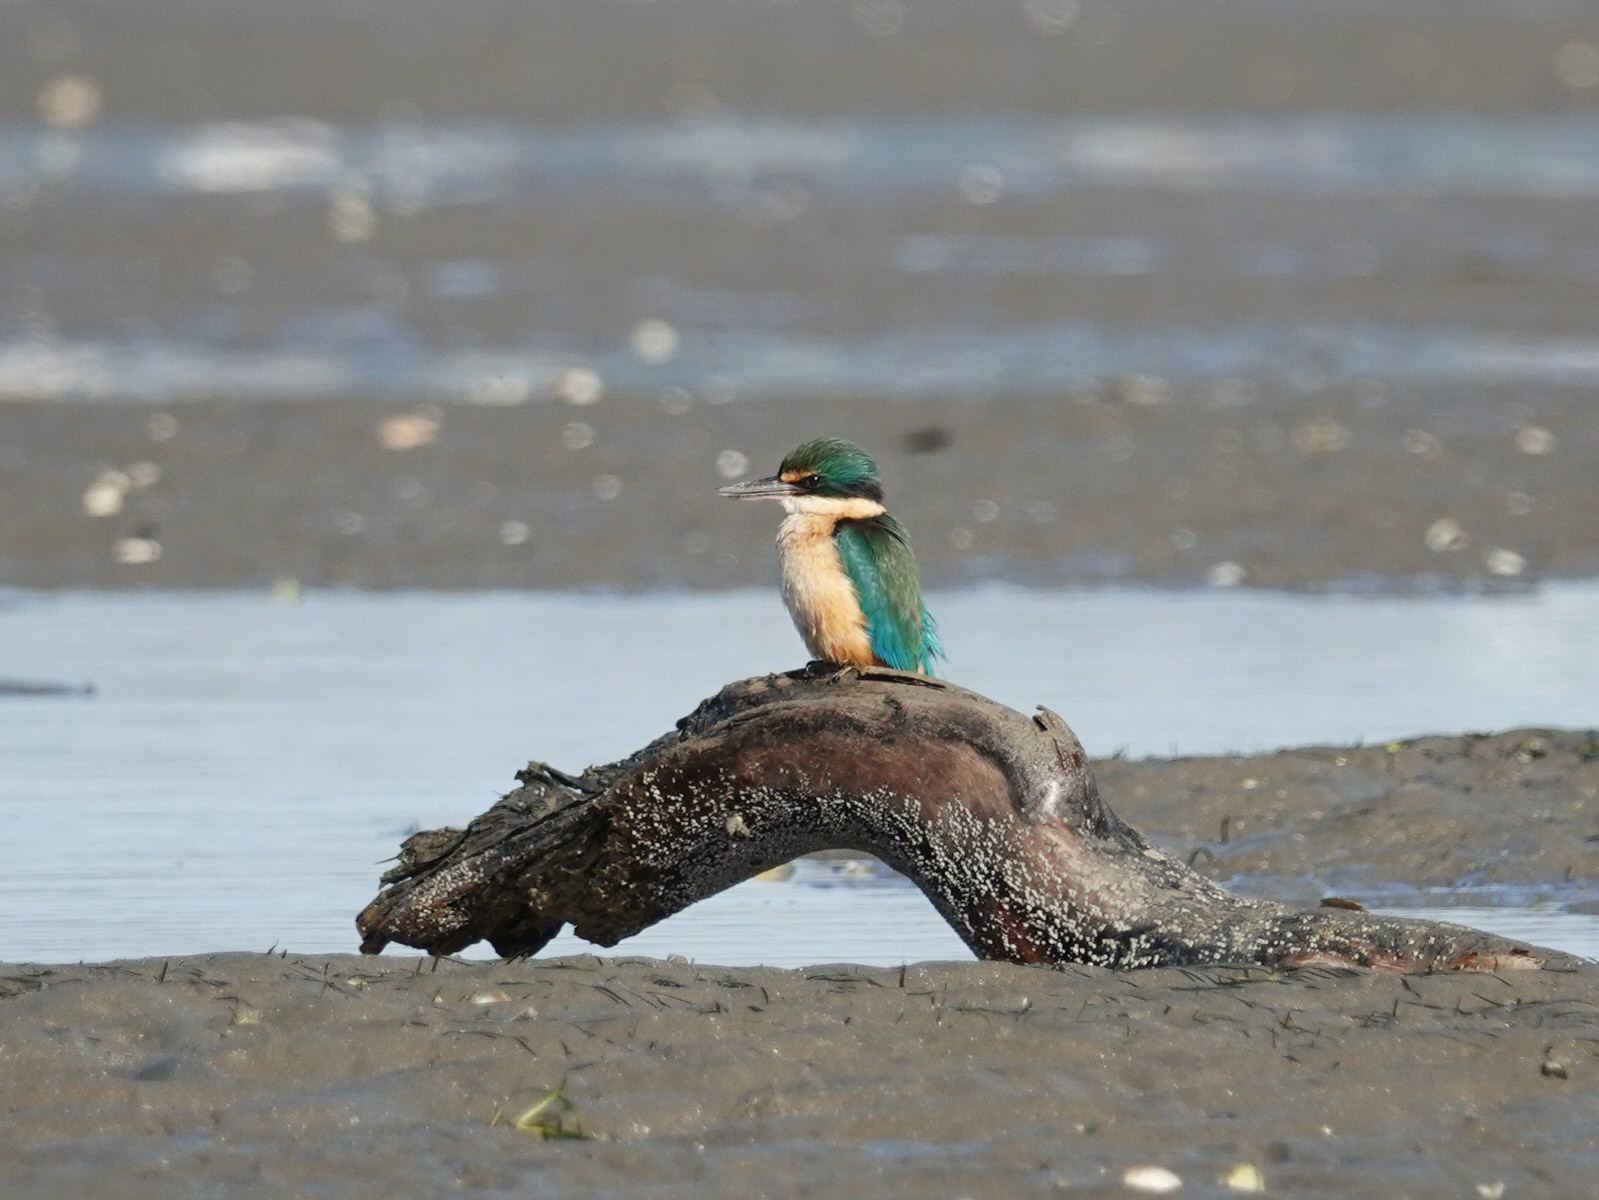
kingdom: Animalia
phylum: Chordata
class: Aves
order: Coraciiformes
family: Alcedinidae
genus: Todiramphus
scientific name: Todiramphus sanctus
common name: Sacred kingfisher
